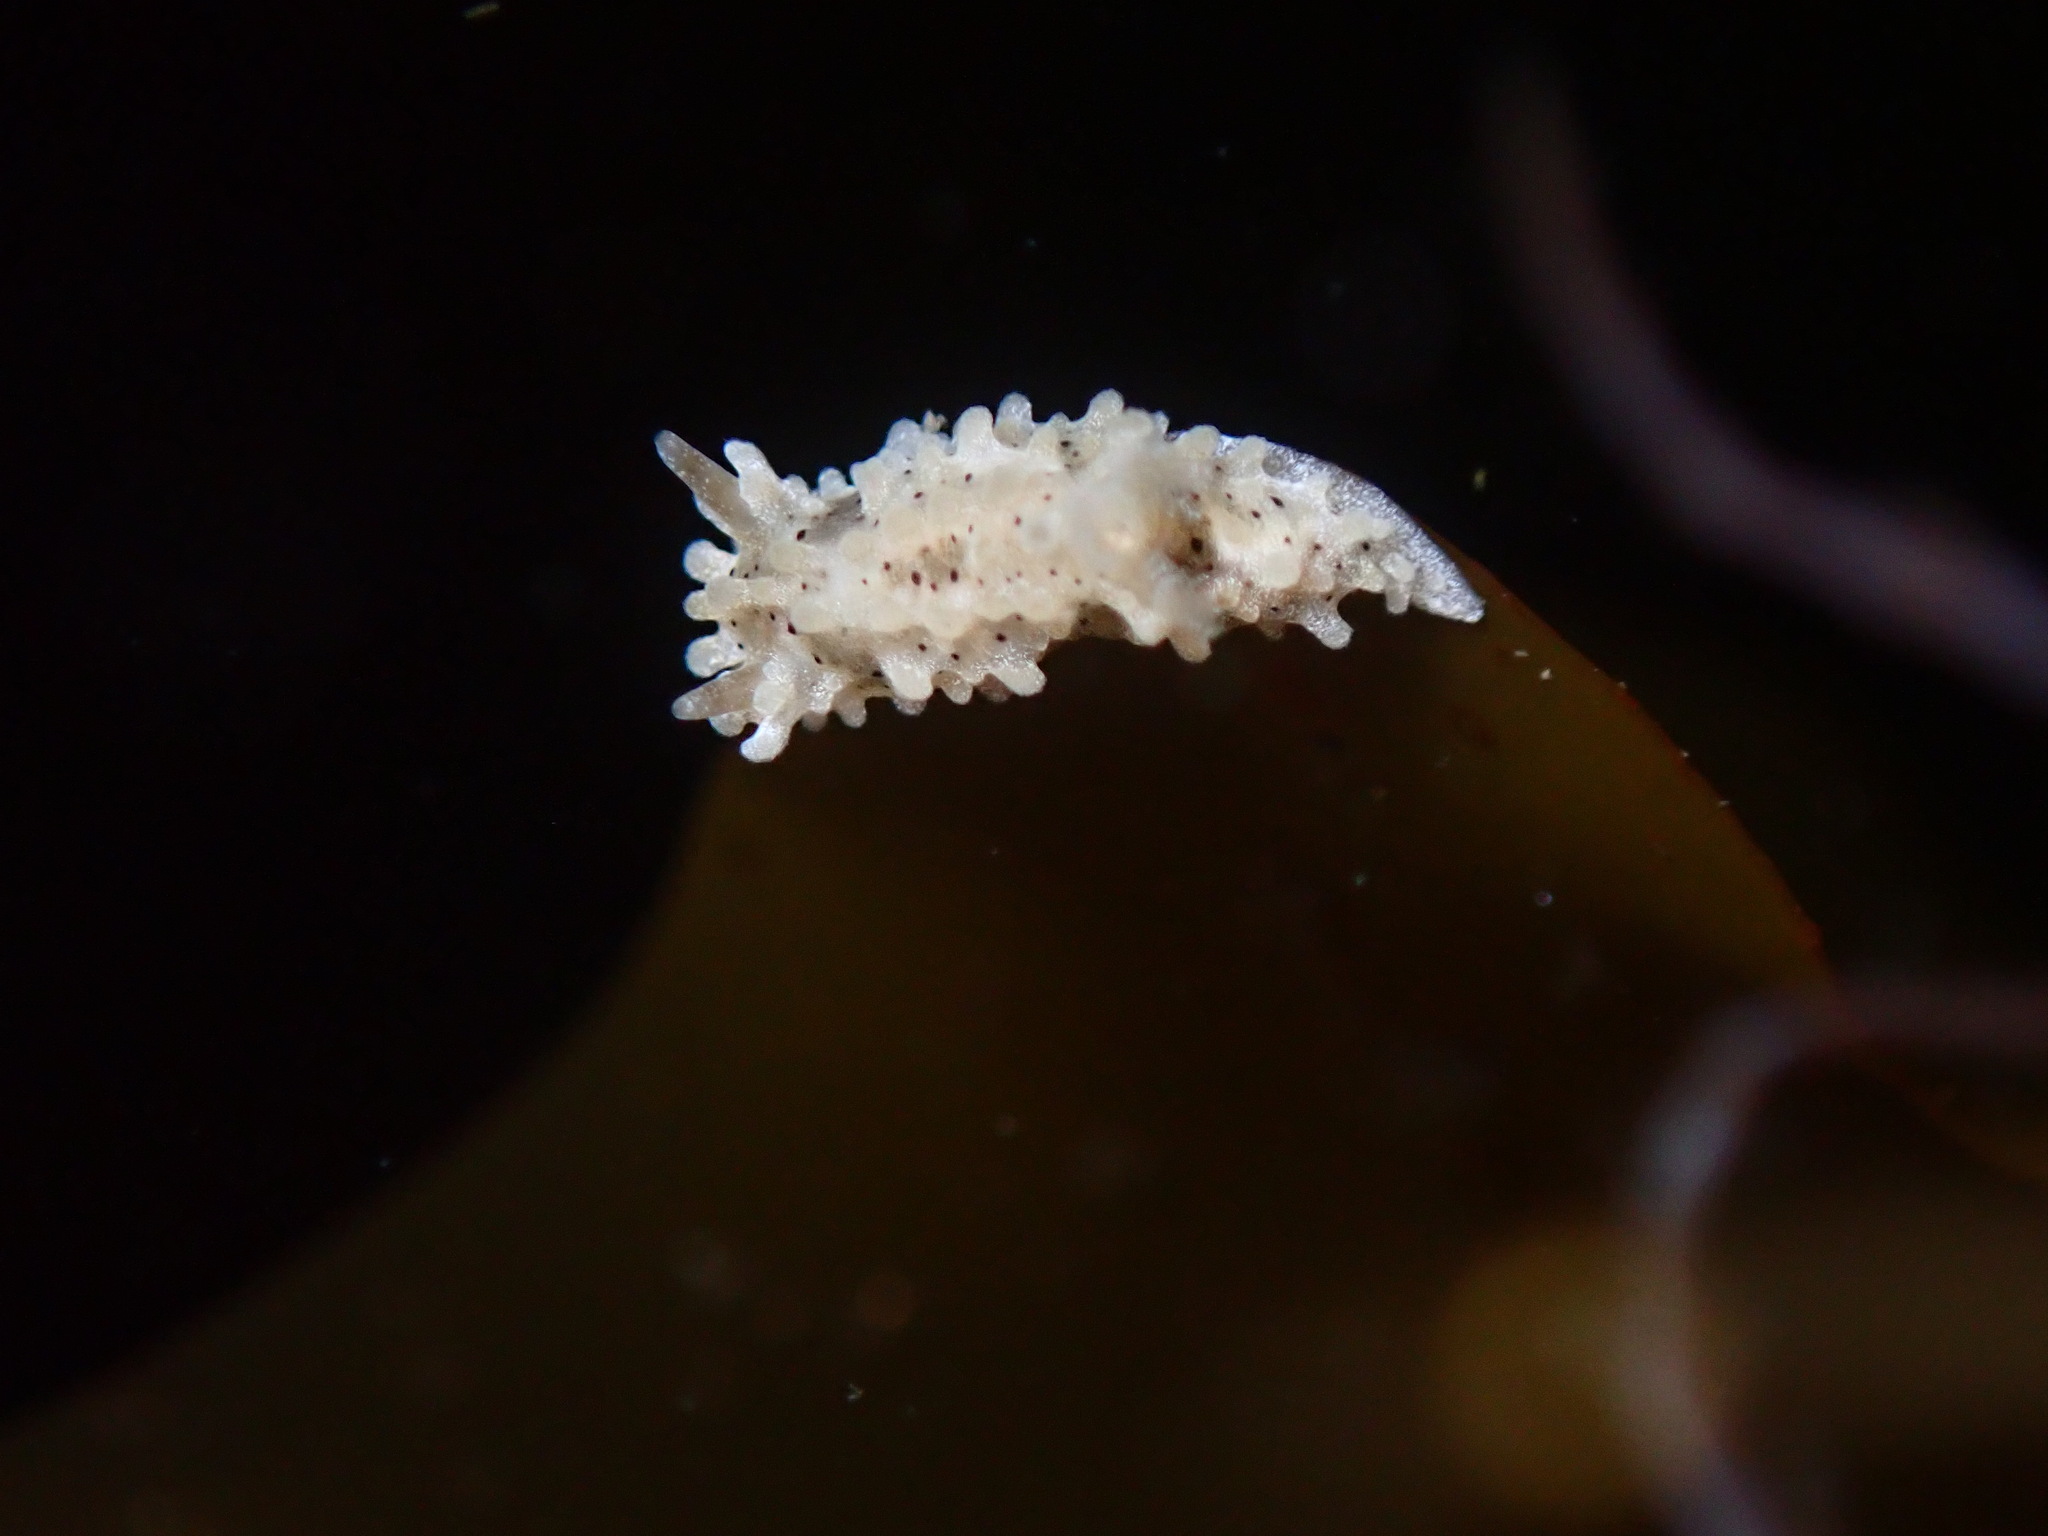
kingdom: Animalia
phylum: Mollusca
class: Gastropoda
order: Nudibranchia
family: Aegiridae
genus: Aegires
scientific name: Aegires albopunctatus
